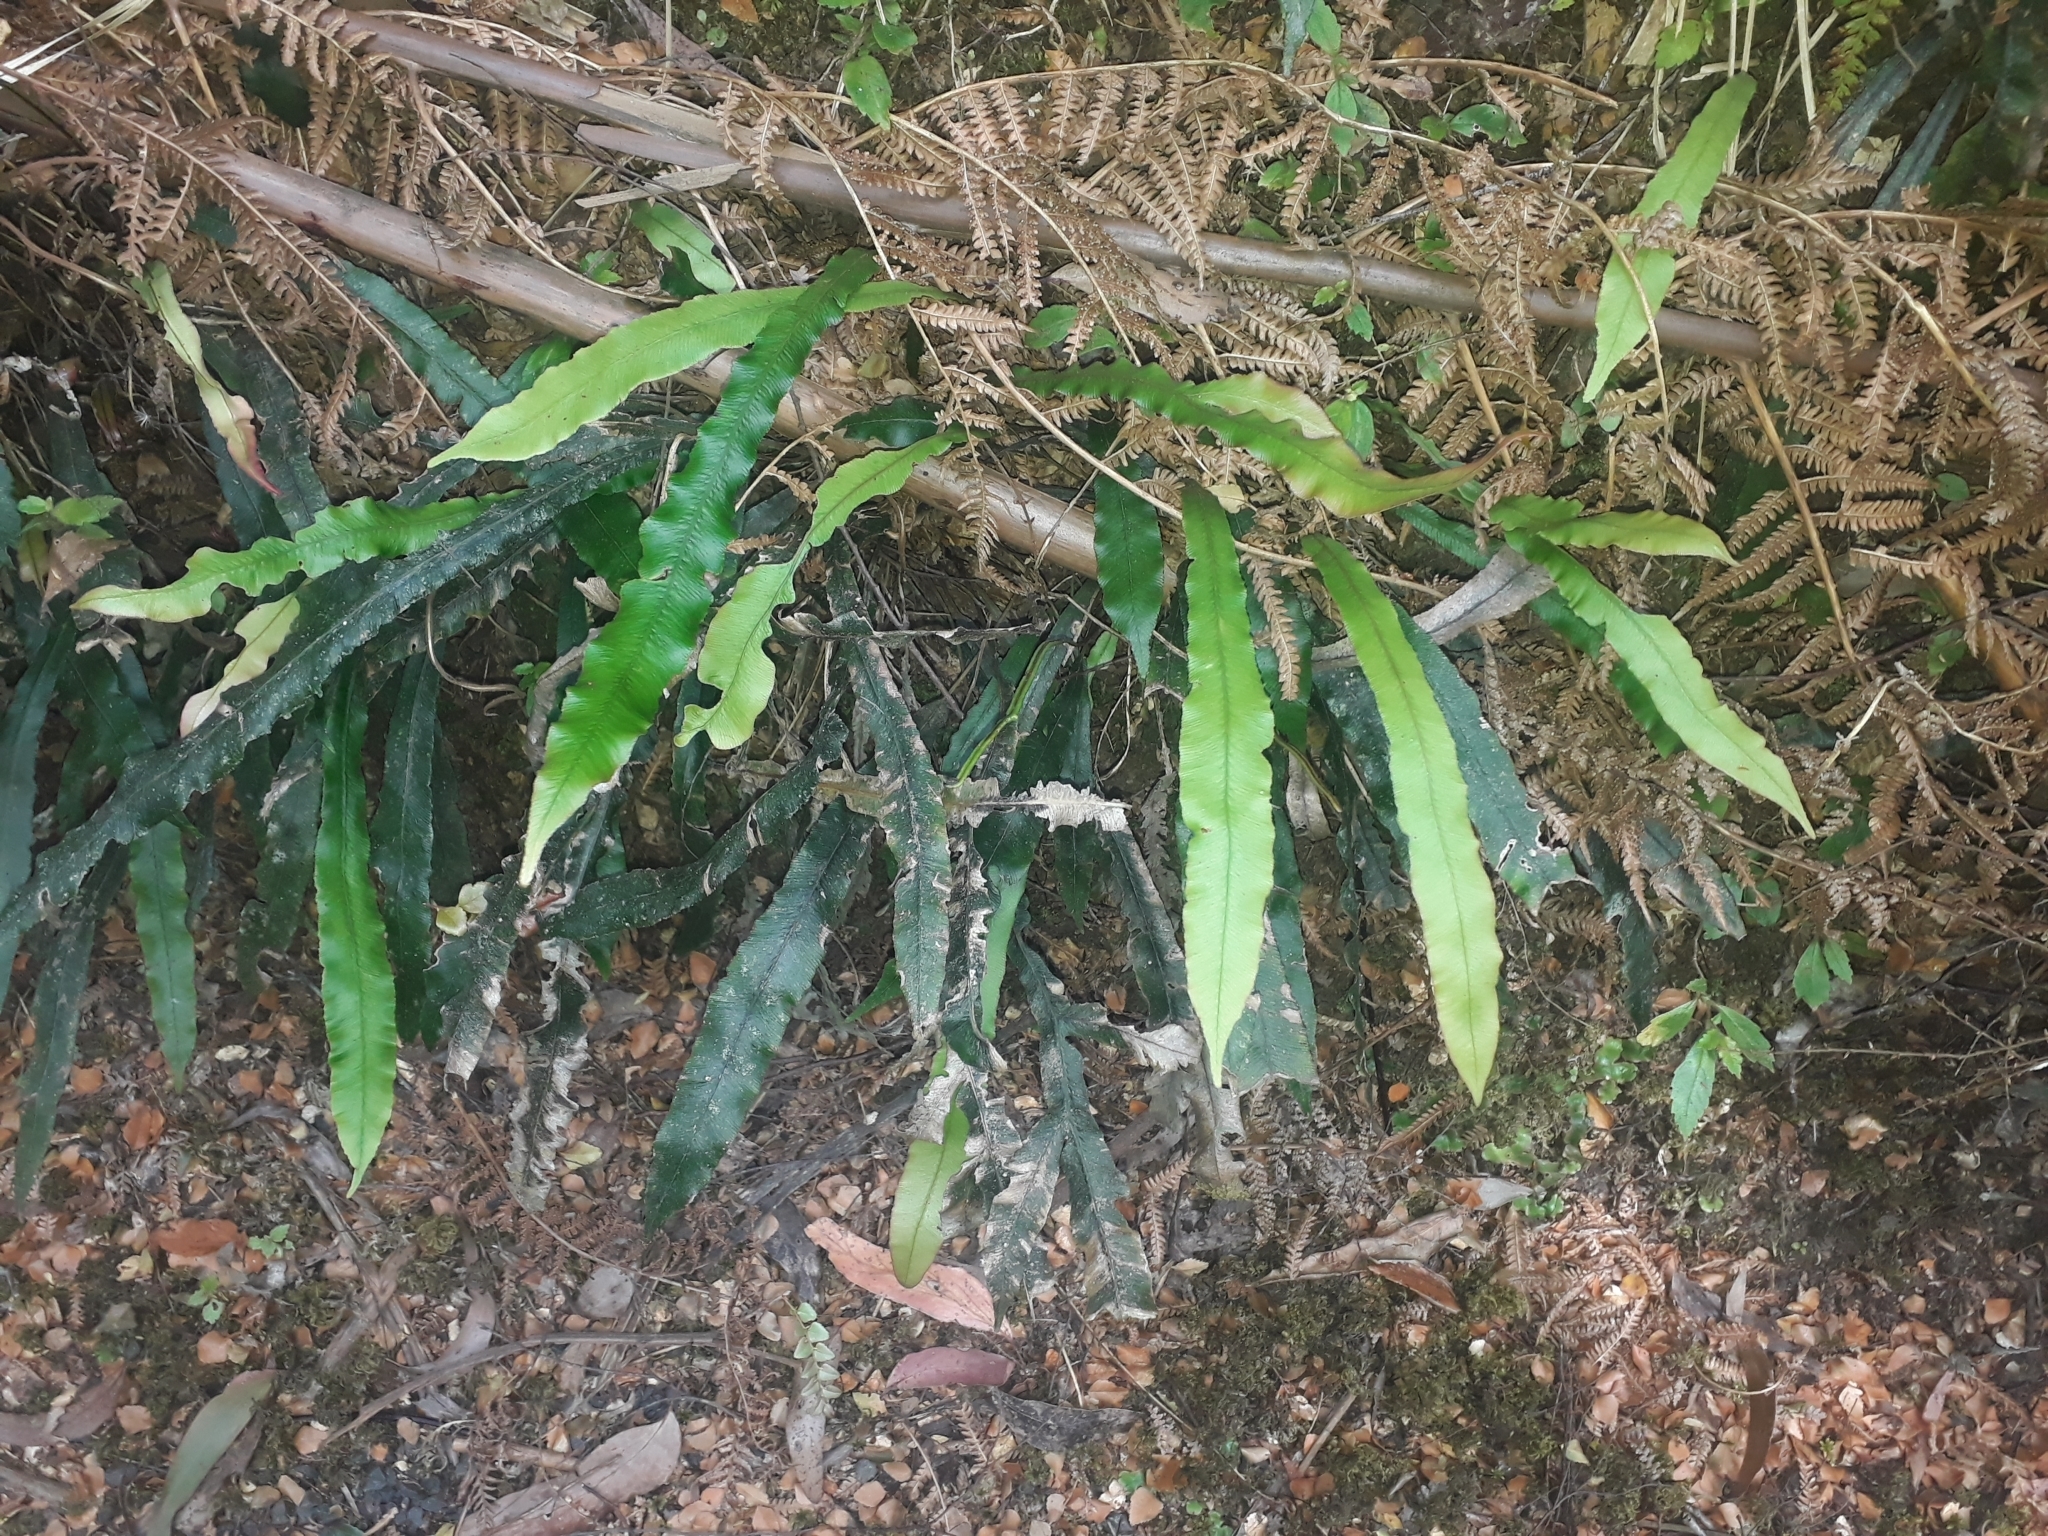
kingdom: Plantae
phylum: Tracheophyta
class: Polypodiopsida
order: Polypodiales
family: Blechnaceae
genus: Austroblechnum
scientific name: Austroblechnum patersonii
